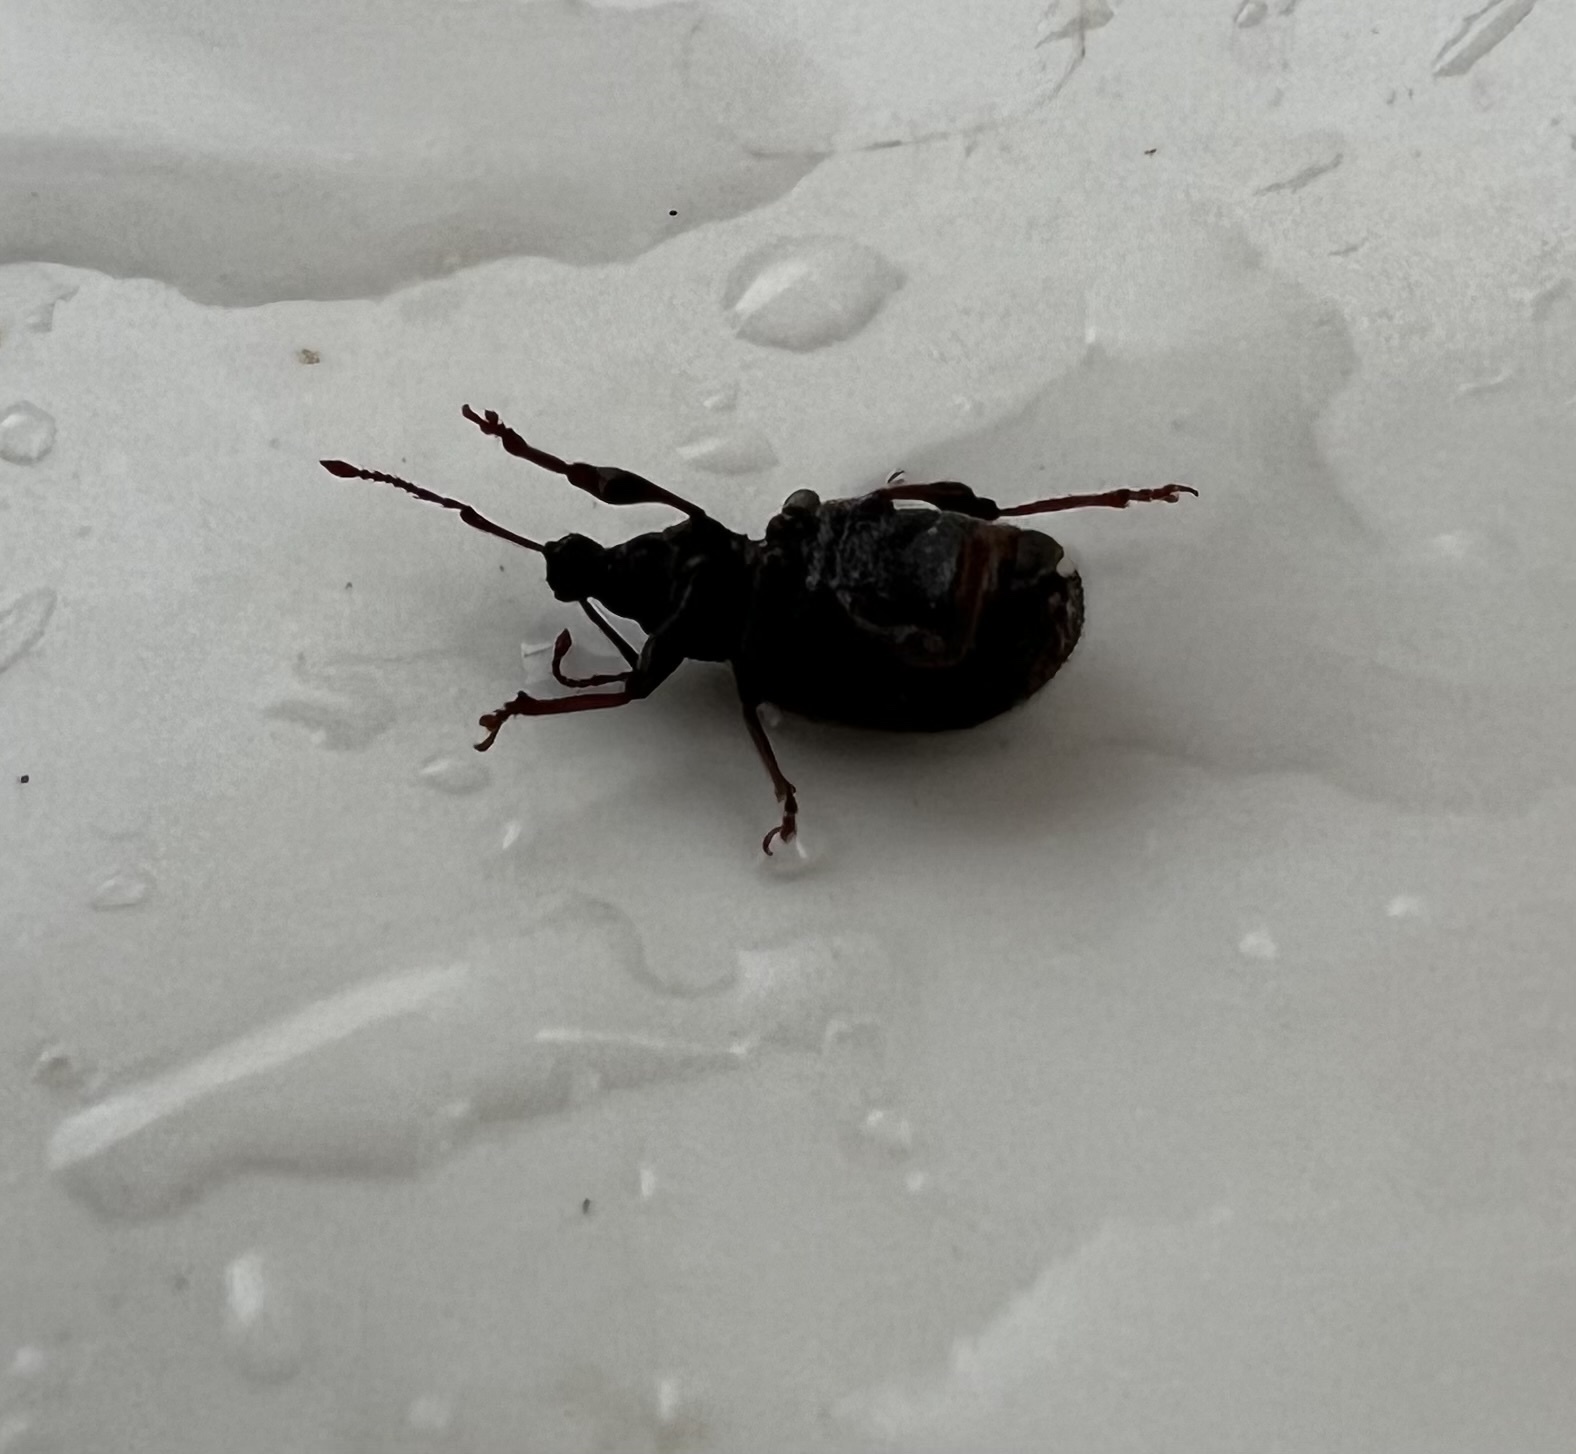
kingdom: Animalia
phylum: Arthropoda
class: Insecta
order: Coleoptera
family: Curculionidae
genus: Otiorhynchus
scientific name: Otiorhynchus rugosostriatus
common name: Weevil
